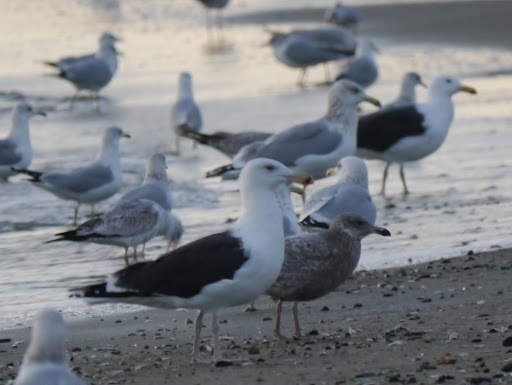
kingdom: Animalia
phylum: Chordata
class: Aves
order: Charadriiformes
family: Laridae
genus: Larus
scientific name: Larus marinus
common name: Great black-backed gull
